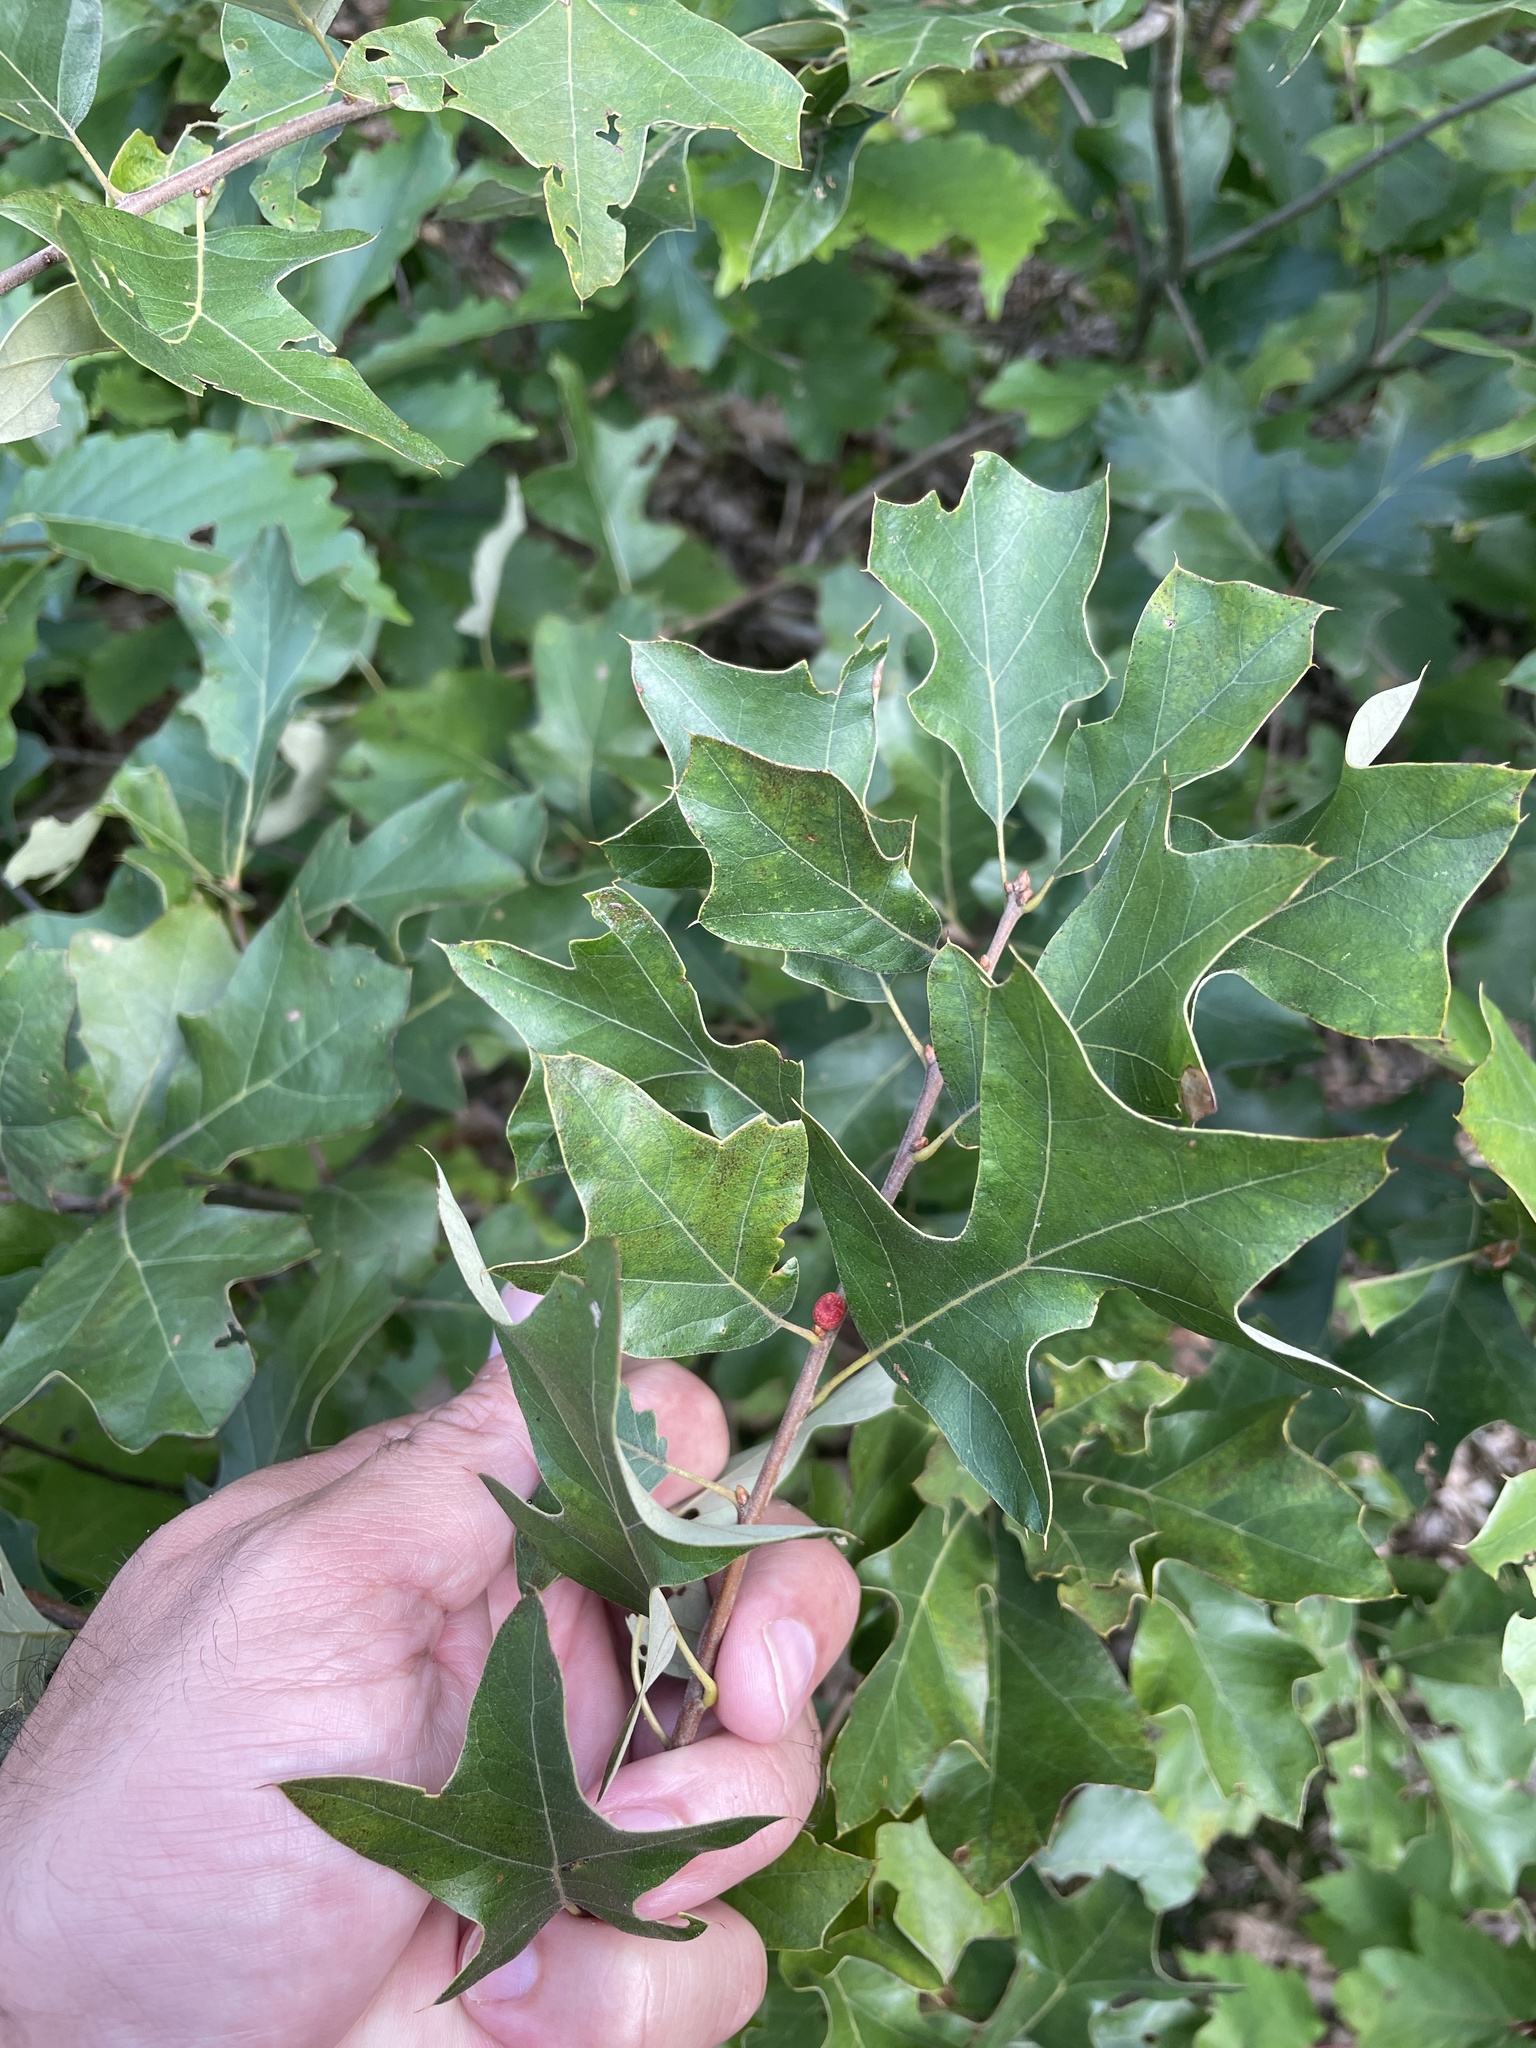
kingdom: Animalia
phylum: Arthropoda
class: Insecta
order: Hymenoptera
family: Cynipidae
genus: Kokkocynips
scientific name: Kokkocynips imbricariae
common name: Banded bullet gall wasp
